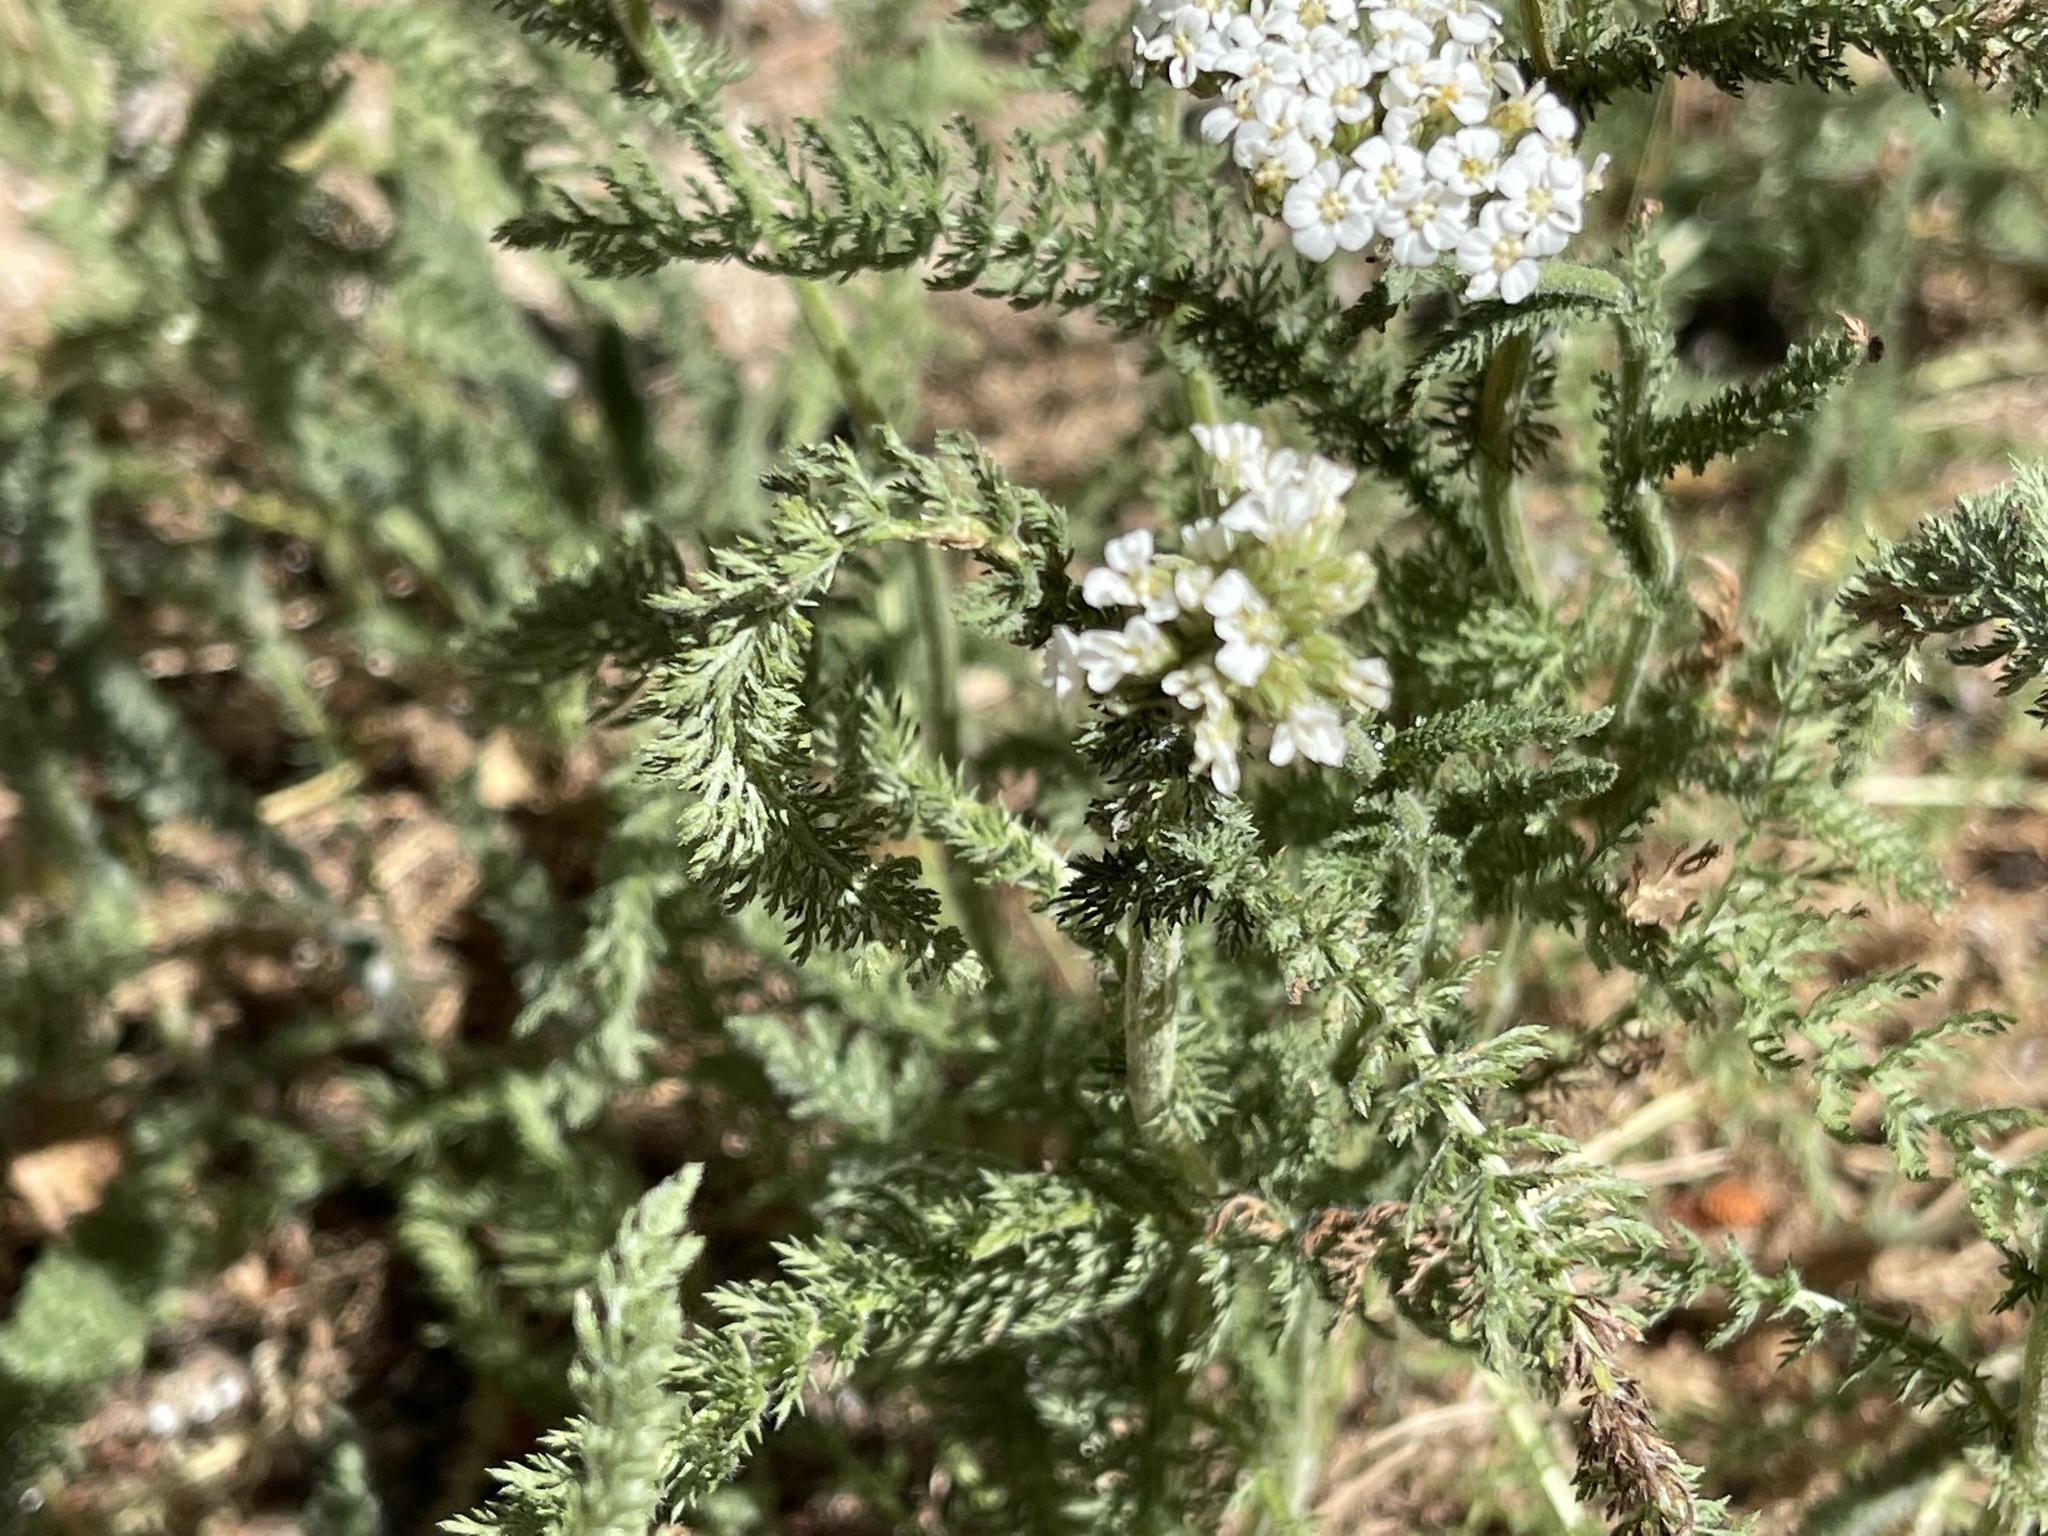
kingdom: Plantae
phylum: Tracheophyta
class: Magnoliopsida
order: Asterales
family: Asteraceae
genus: Achillea
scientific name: Achillea millefolium
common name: Yarrow
